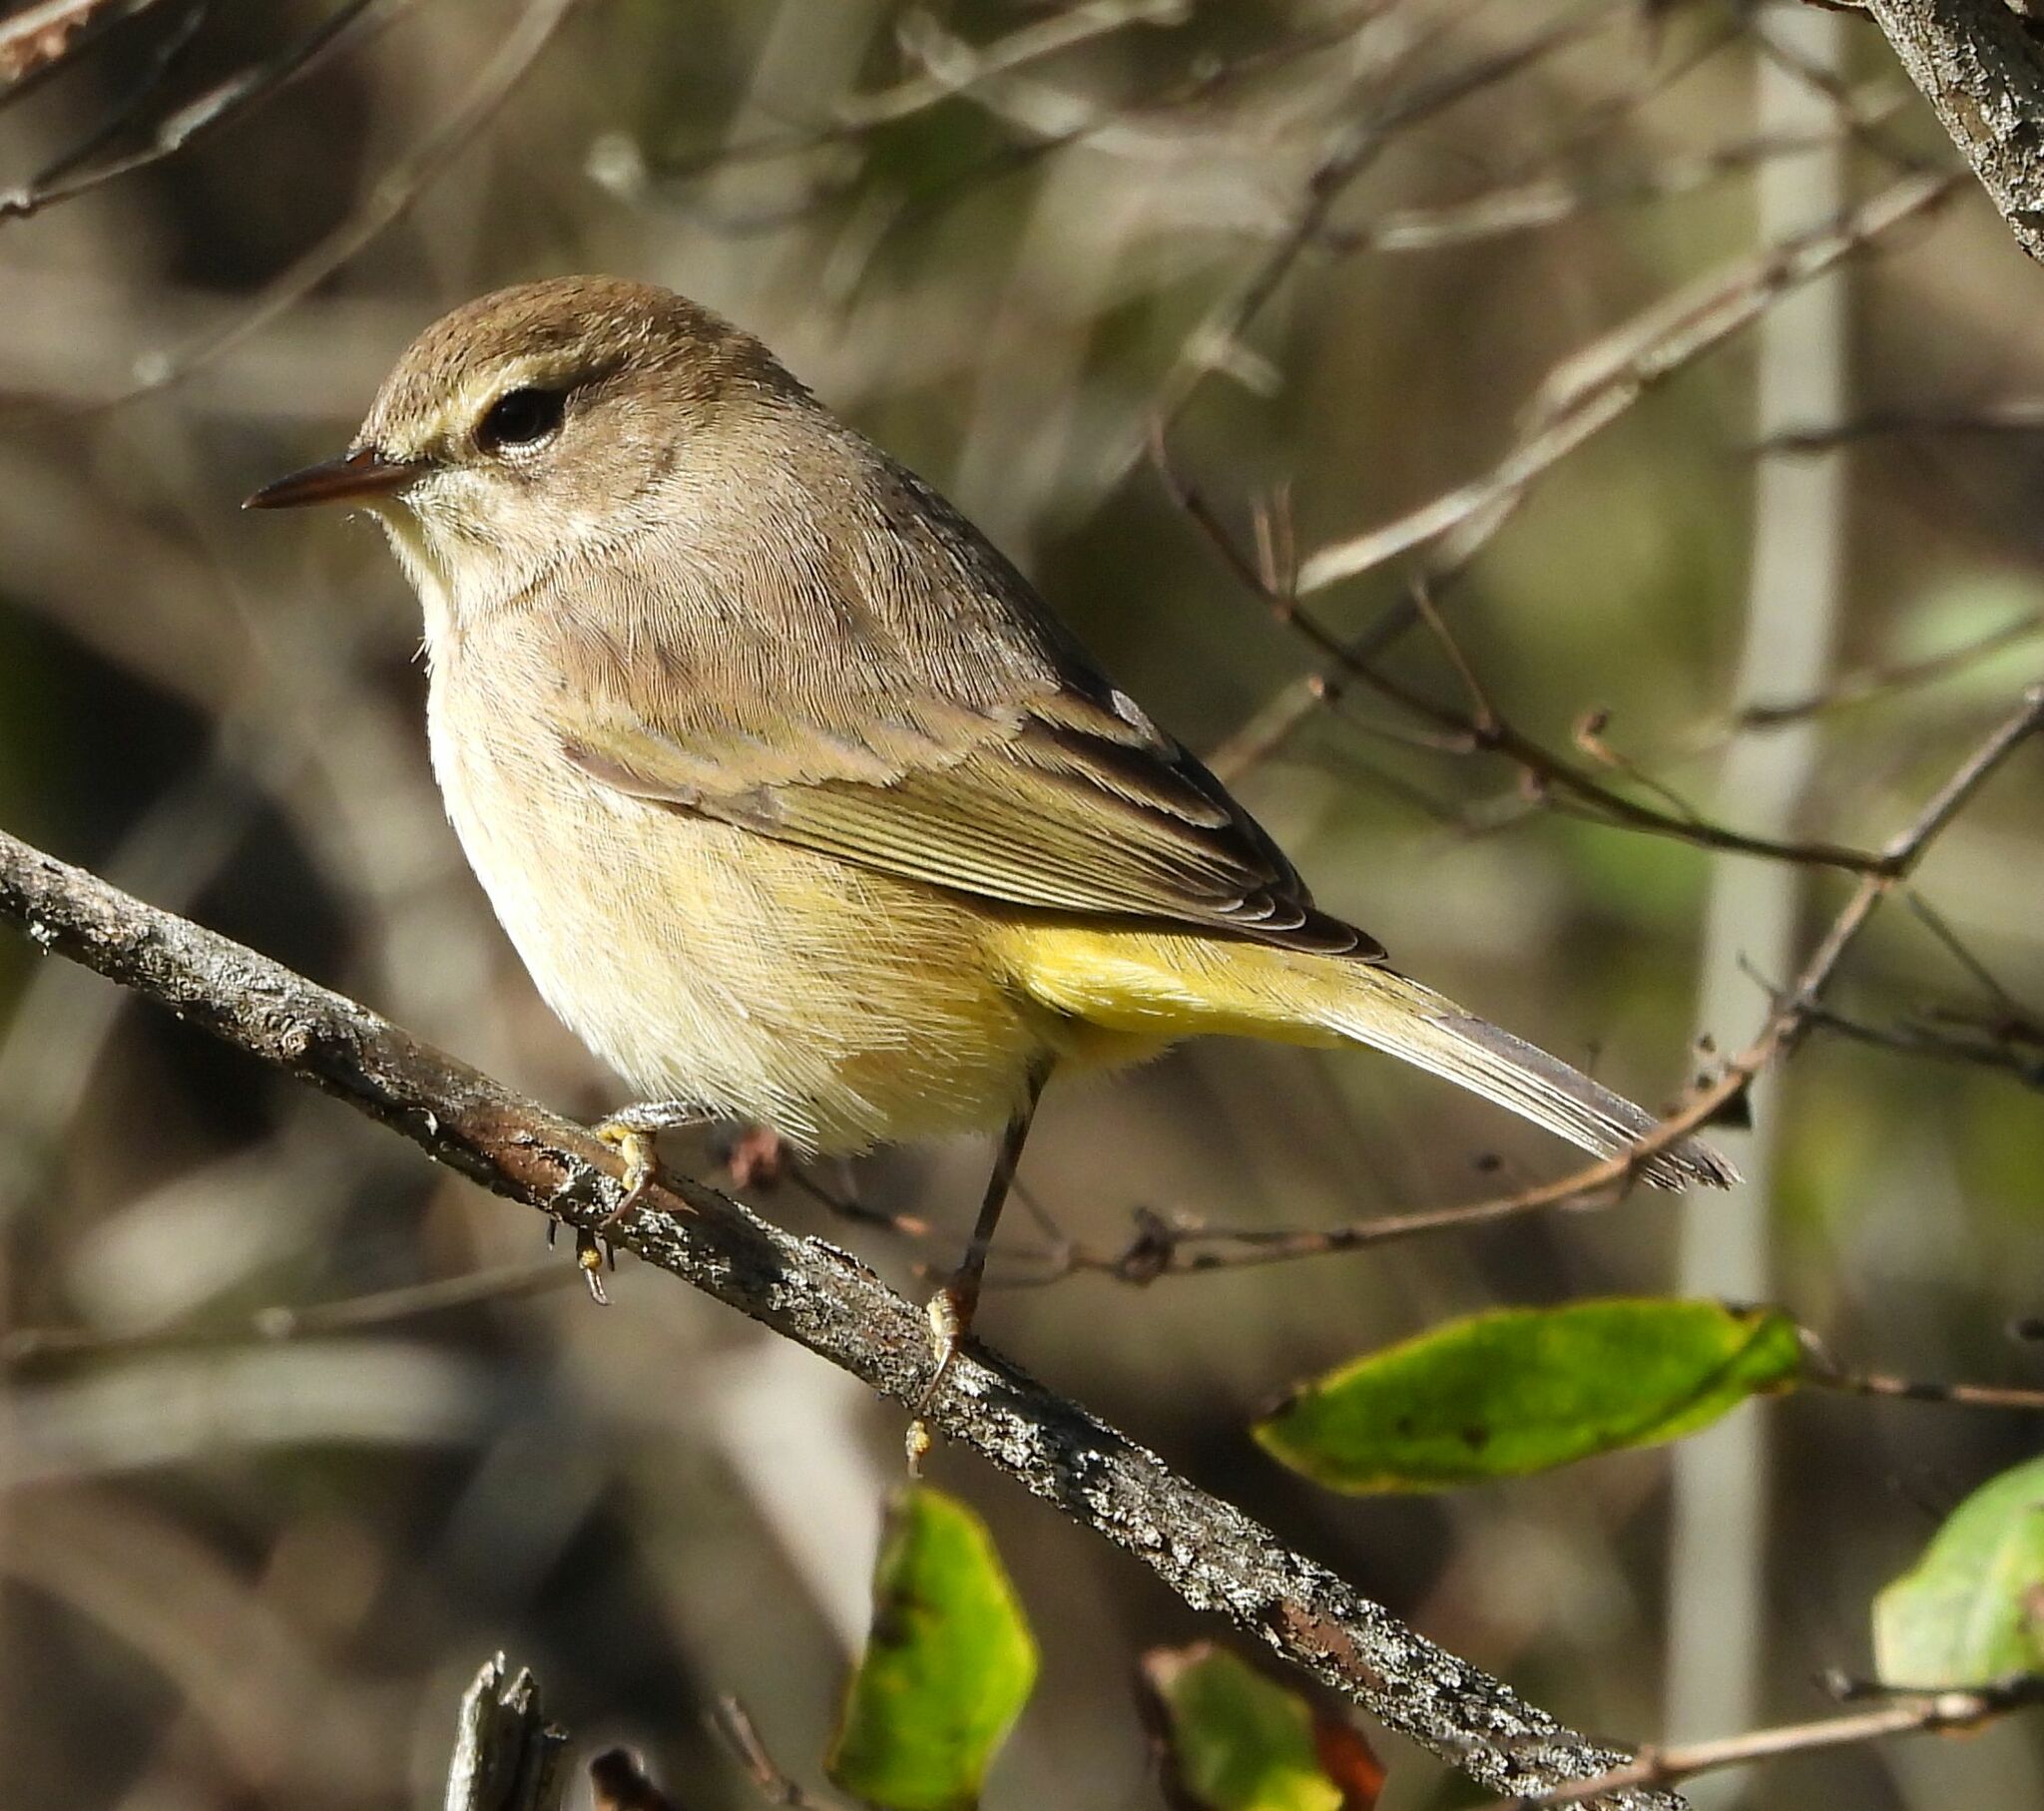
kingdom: Animalia
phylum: Chordata
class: Aves
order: Passeriformes
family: Parulidae
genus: Setophaga
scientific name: Setophaga palmarum
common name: Palm warbler
